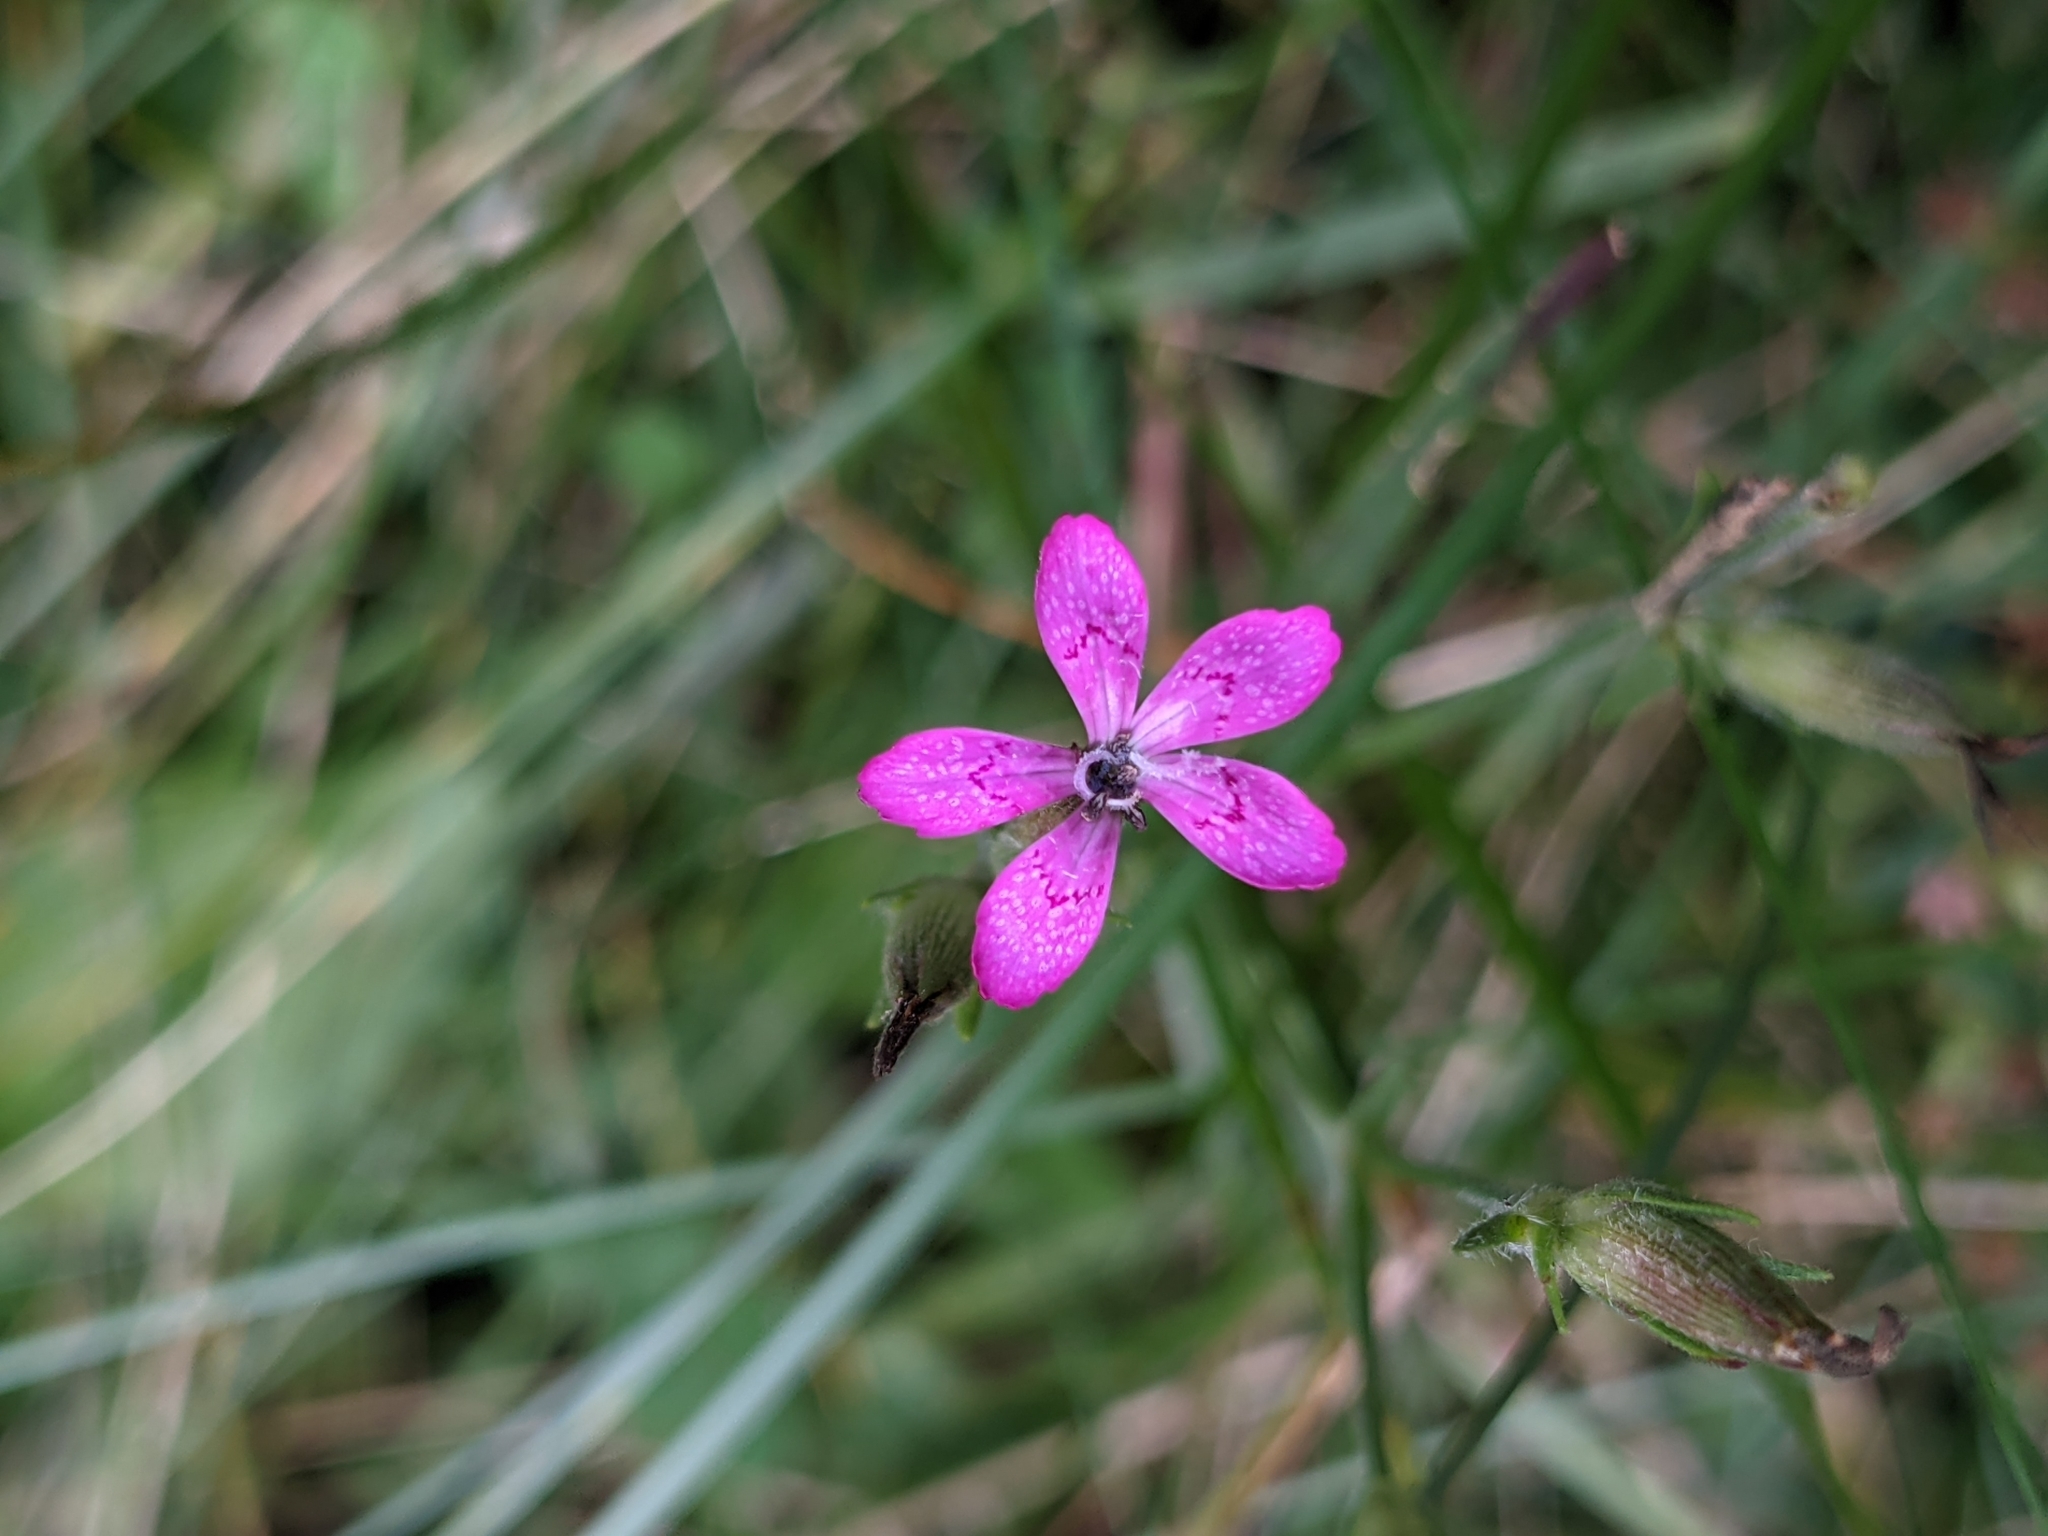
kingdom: Plantae
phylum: Tracheophyta
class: Magnoliopsida
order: Caryophyllales
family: Caryophyllaceae
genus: Dianthus
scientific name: Dianthus armeria
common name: Deptford pink
